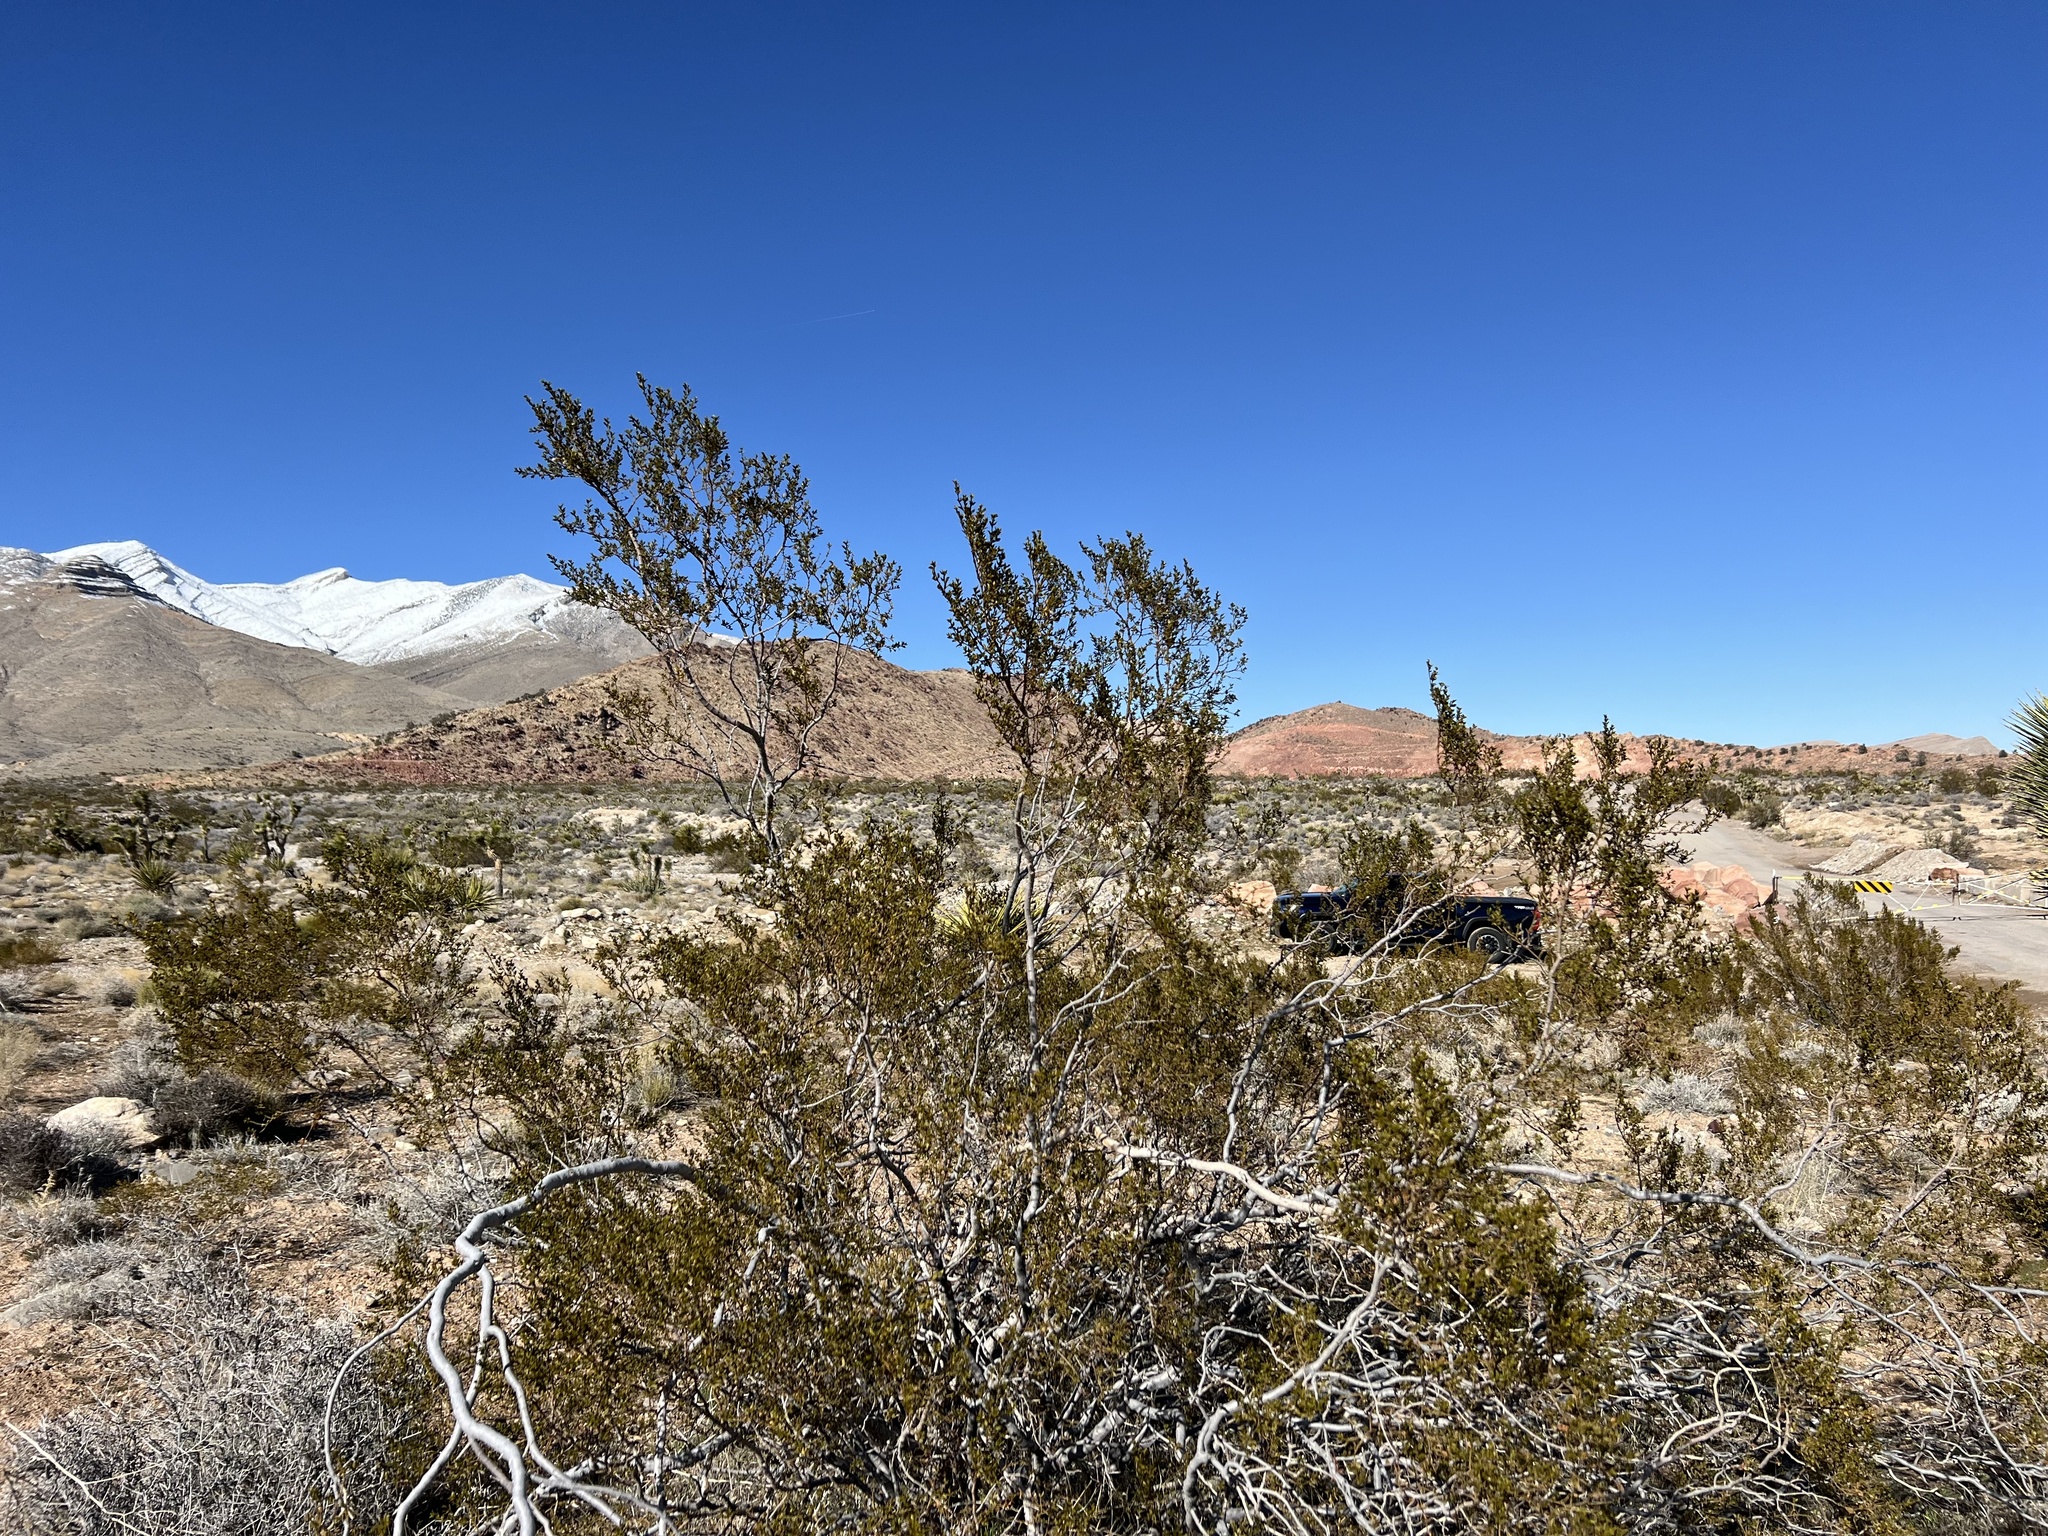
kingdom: Plantae
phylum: Tracheophyta
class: Magnoliopsida
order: Zygophyllales
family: Zygophyllaceae
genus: Larrea
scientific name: Larrea tridentata
